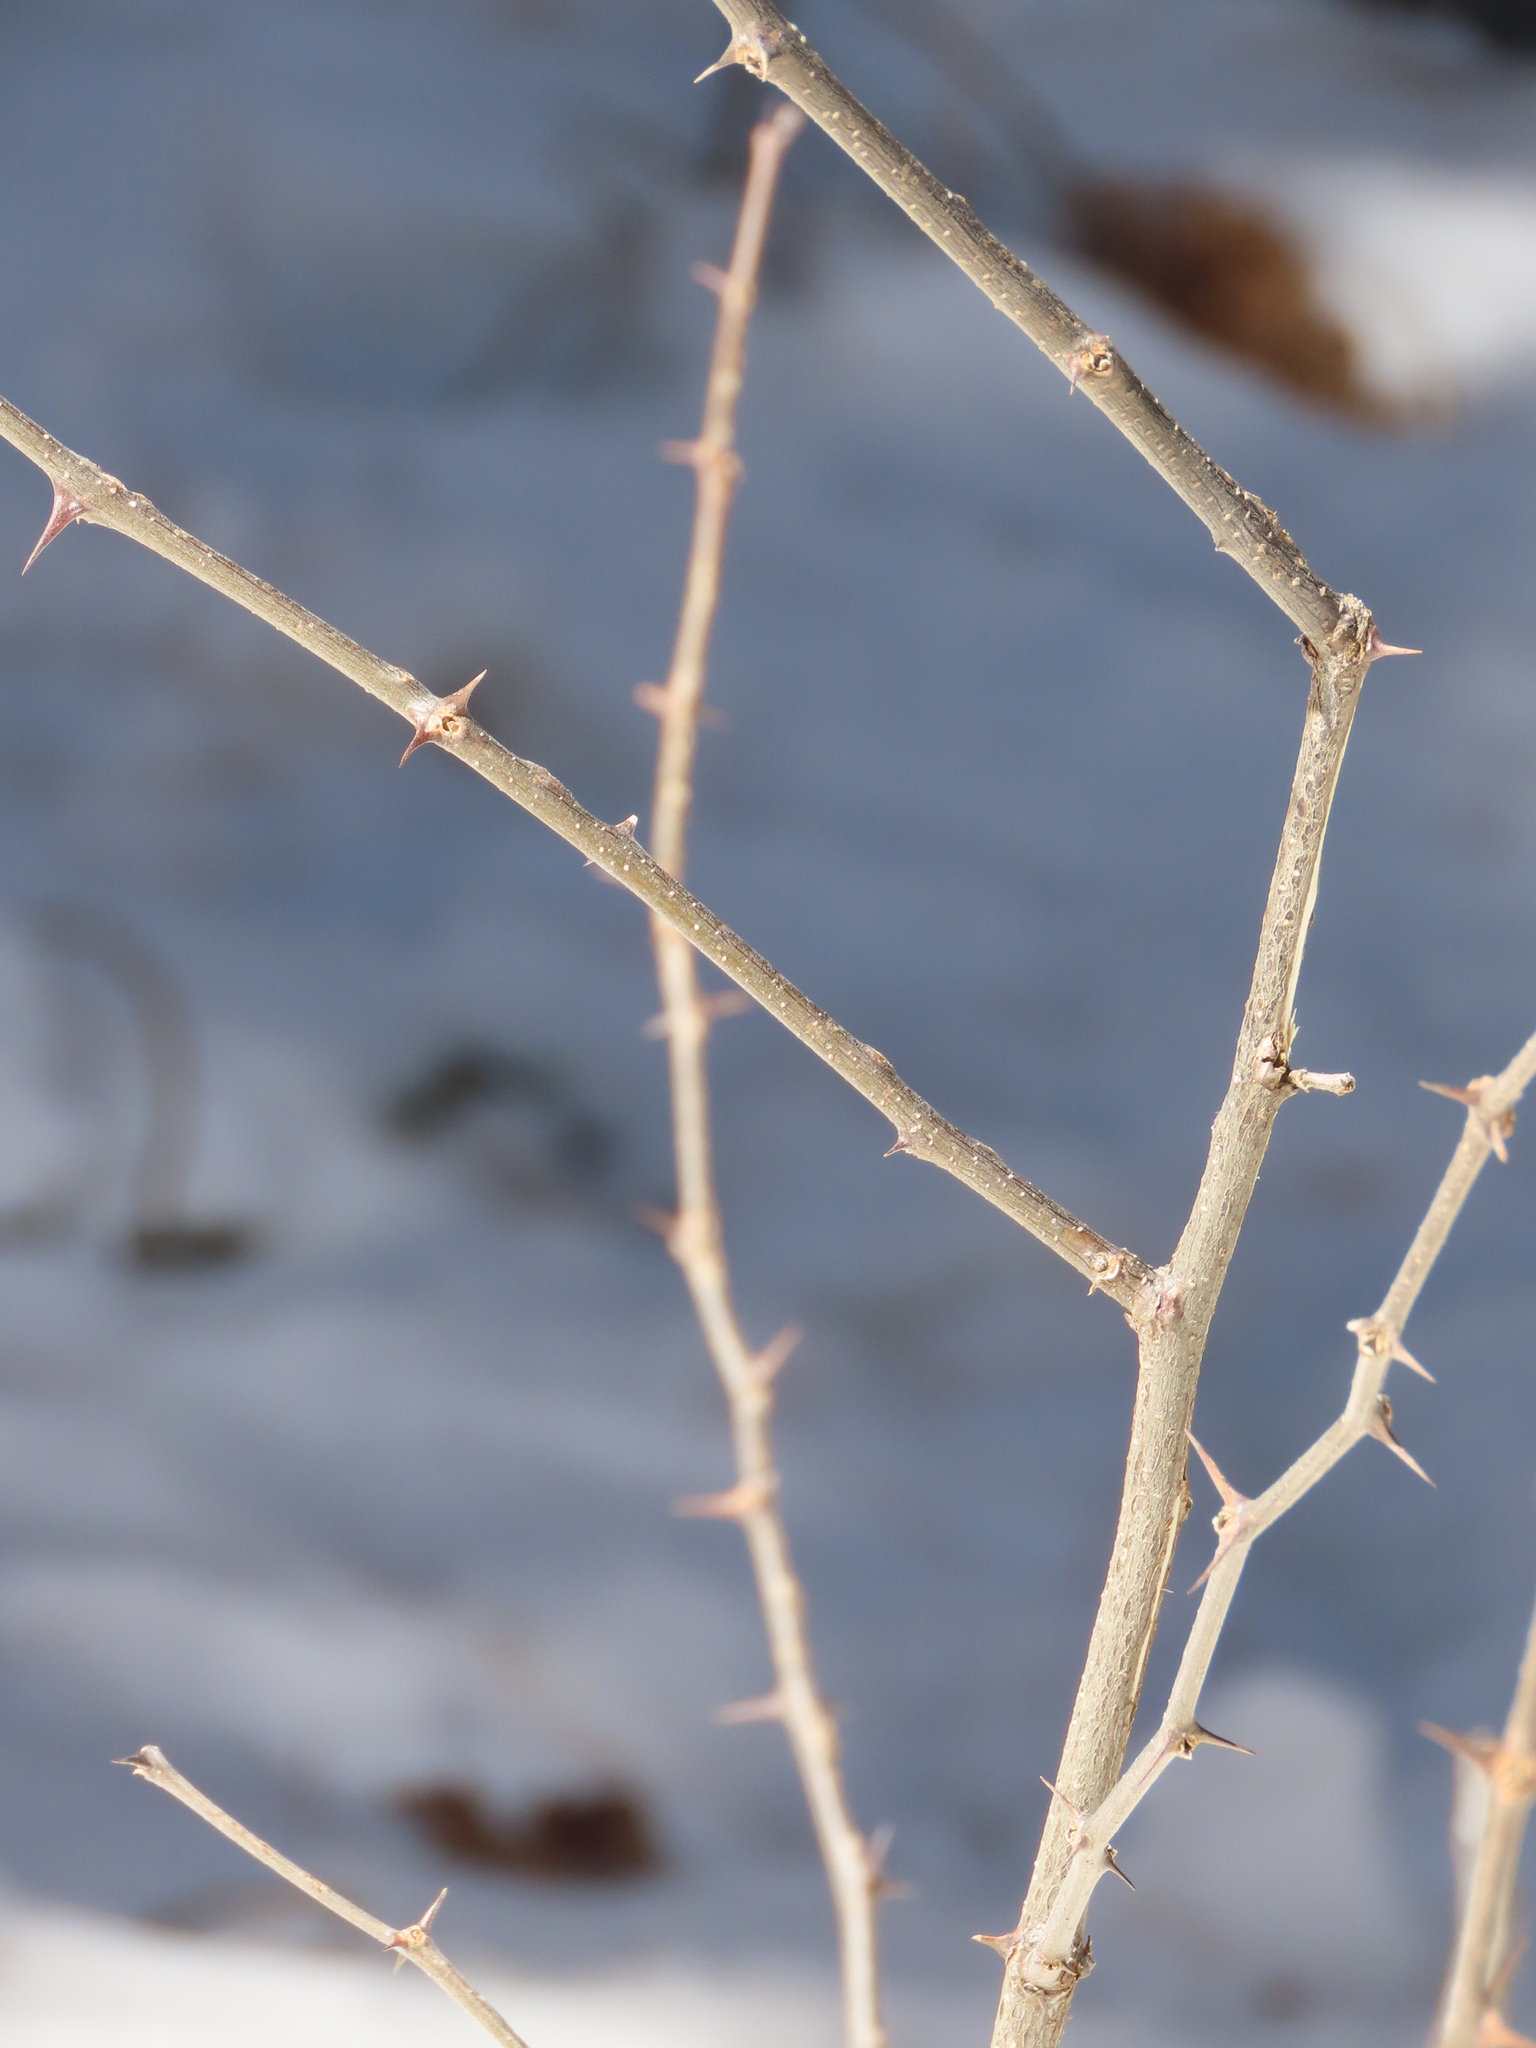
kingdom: Plantae
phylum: Tracheophyta
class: Magnoliopsida
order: Fabales
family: Fabaceae
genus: Robinia
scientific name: Robinia neomexicana
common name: New mexico locust
